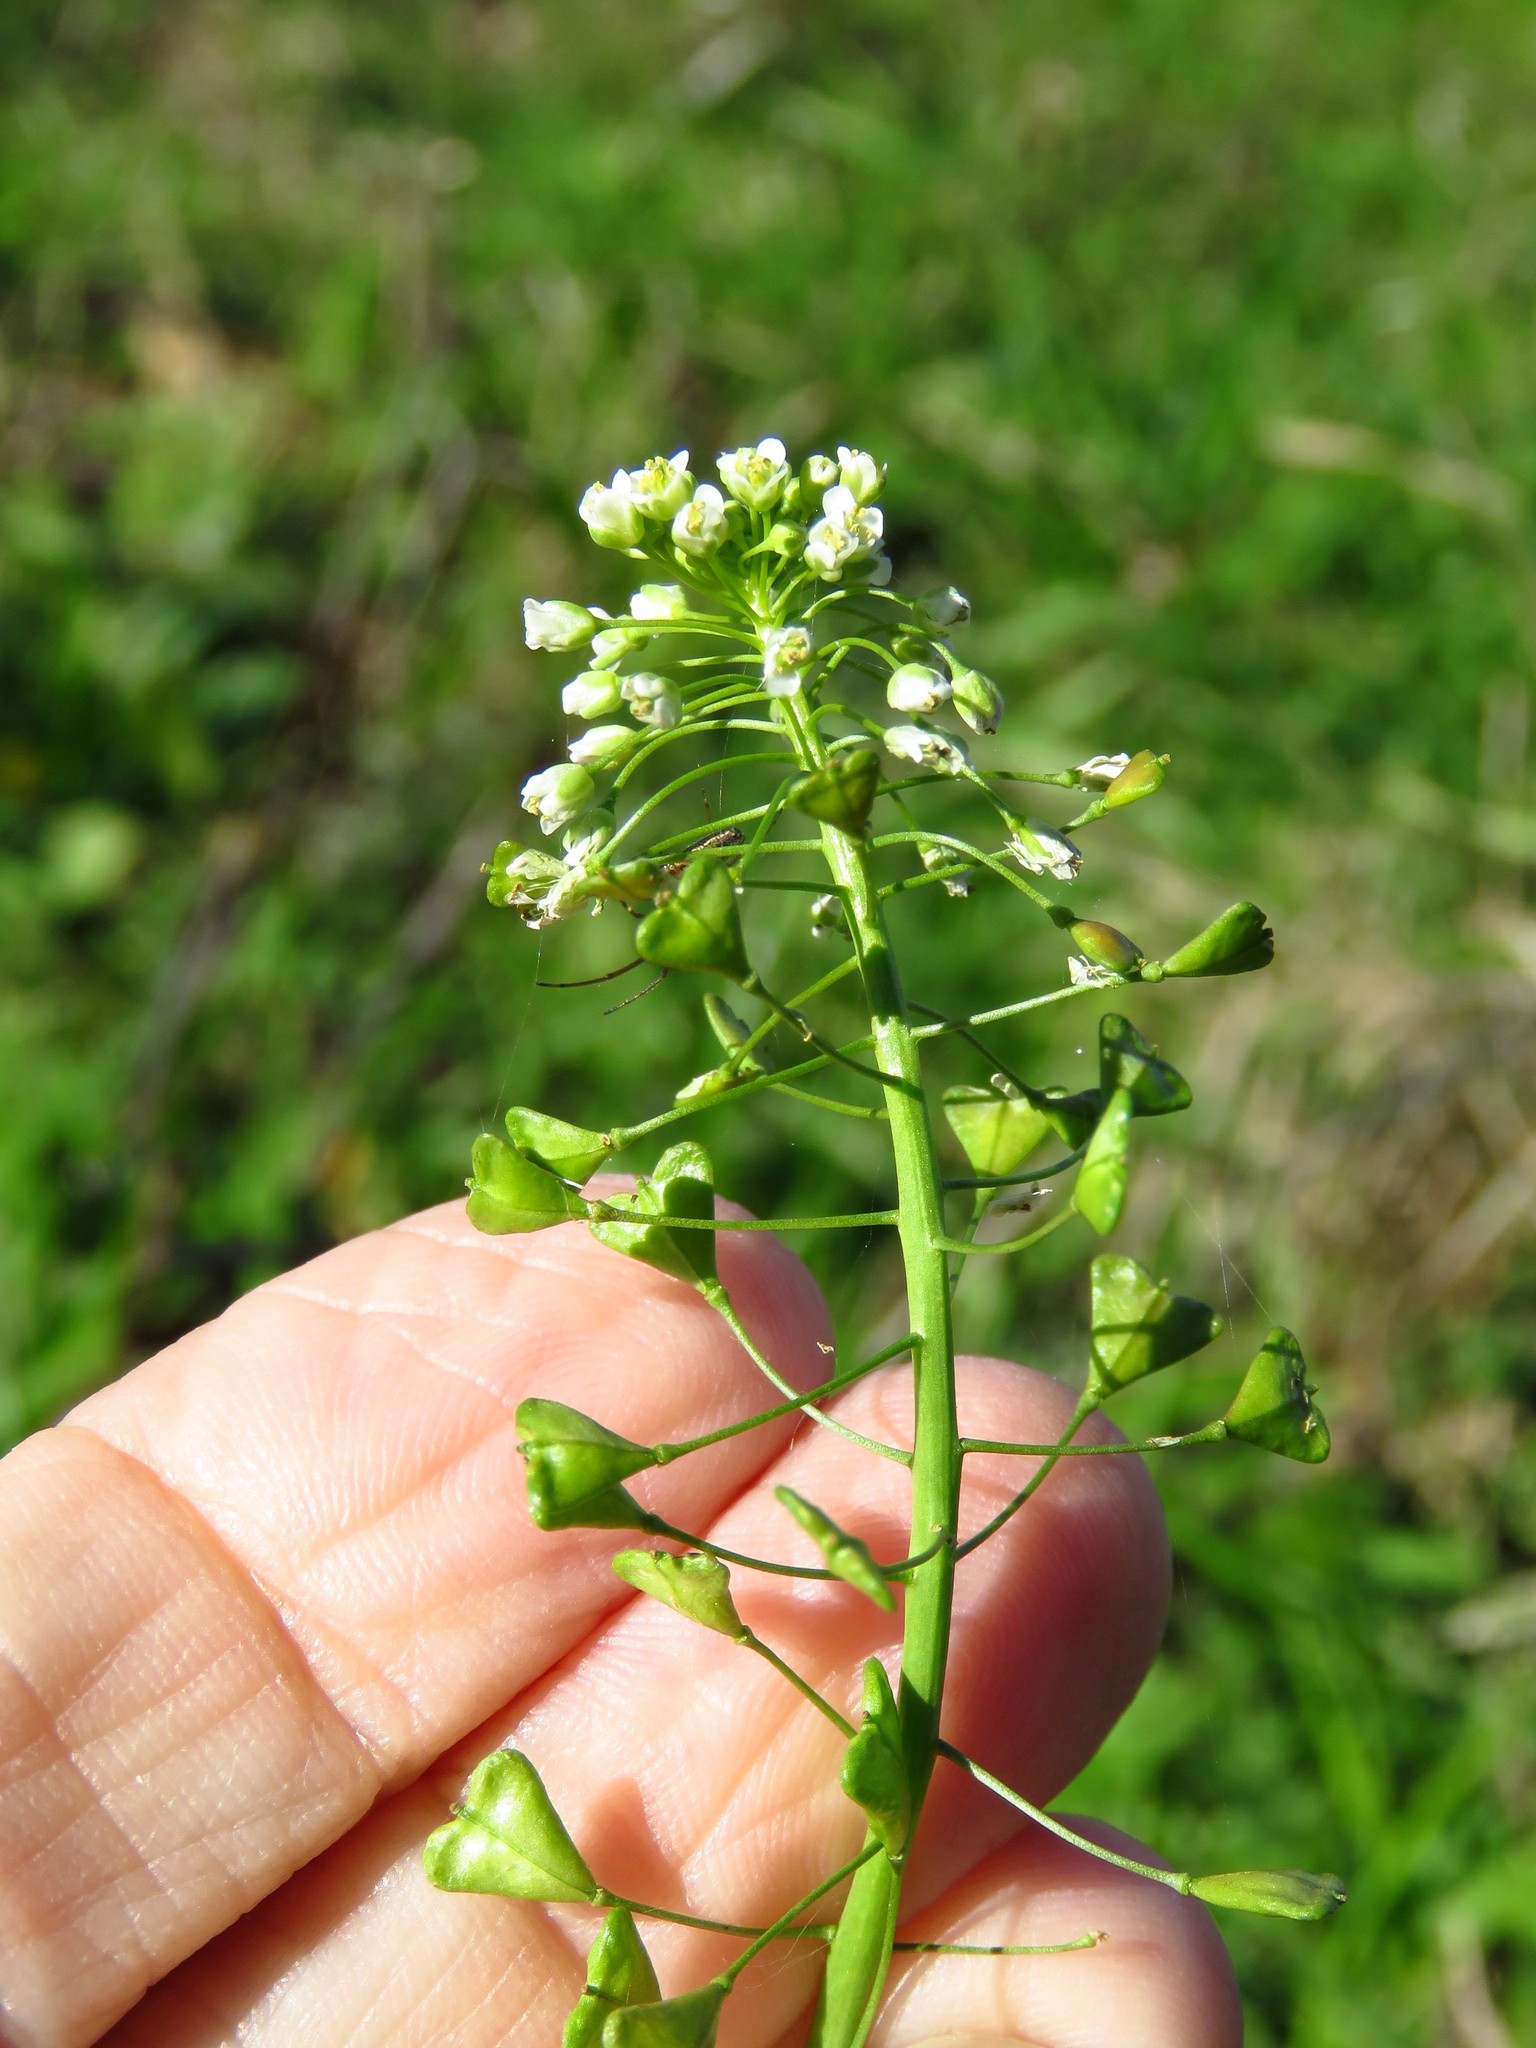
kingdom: Plantae
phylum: Tracheophyta
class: Magnoliopsida
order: Brassicales
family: Brassicaceae
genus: Capsella
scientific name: Capsella bursa-pastoris
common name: Shepherd's purse
